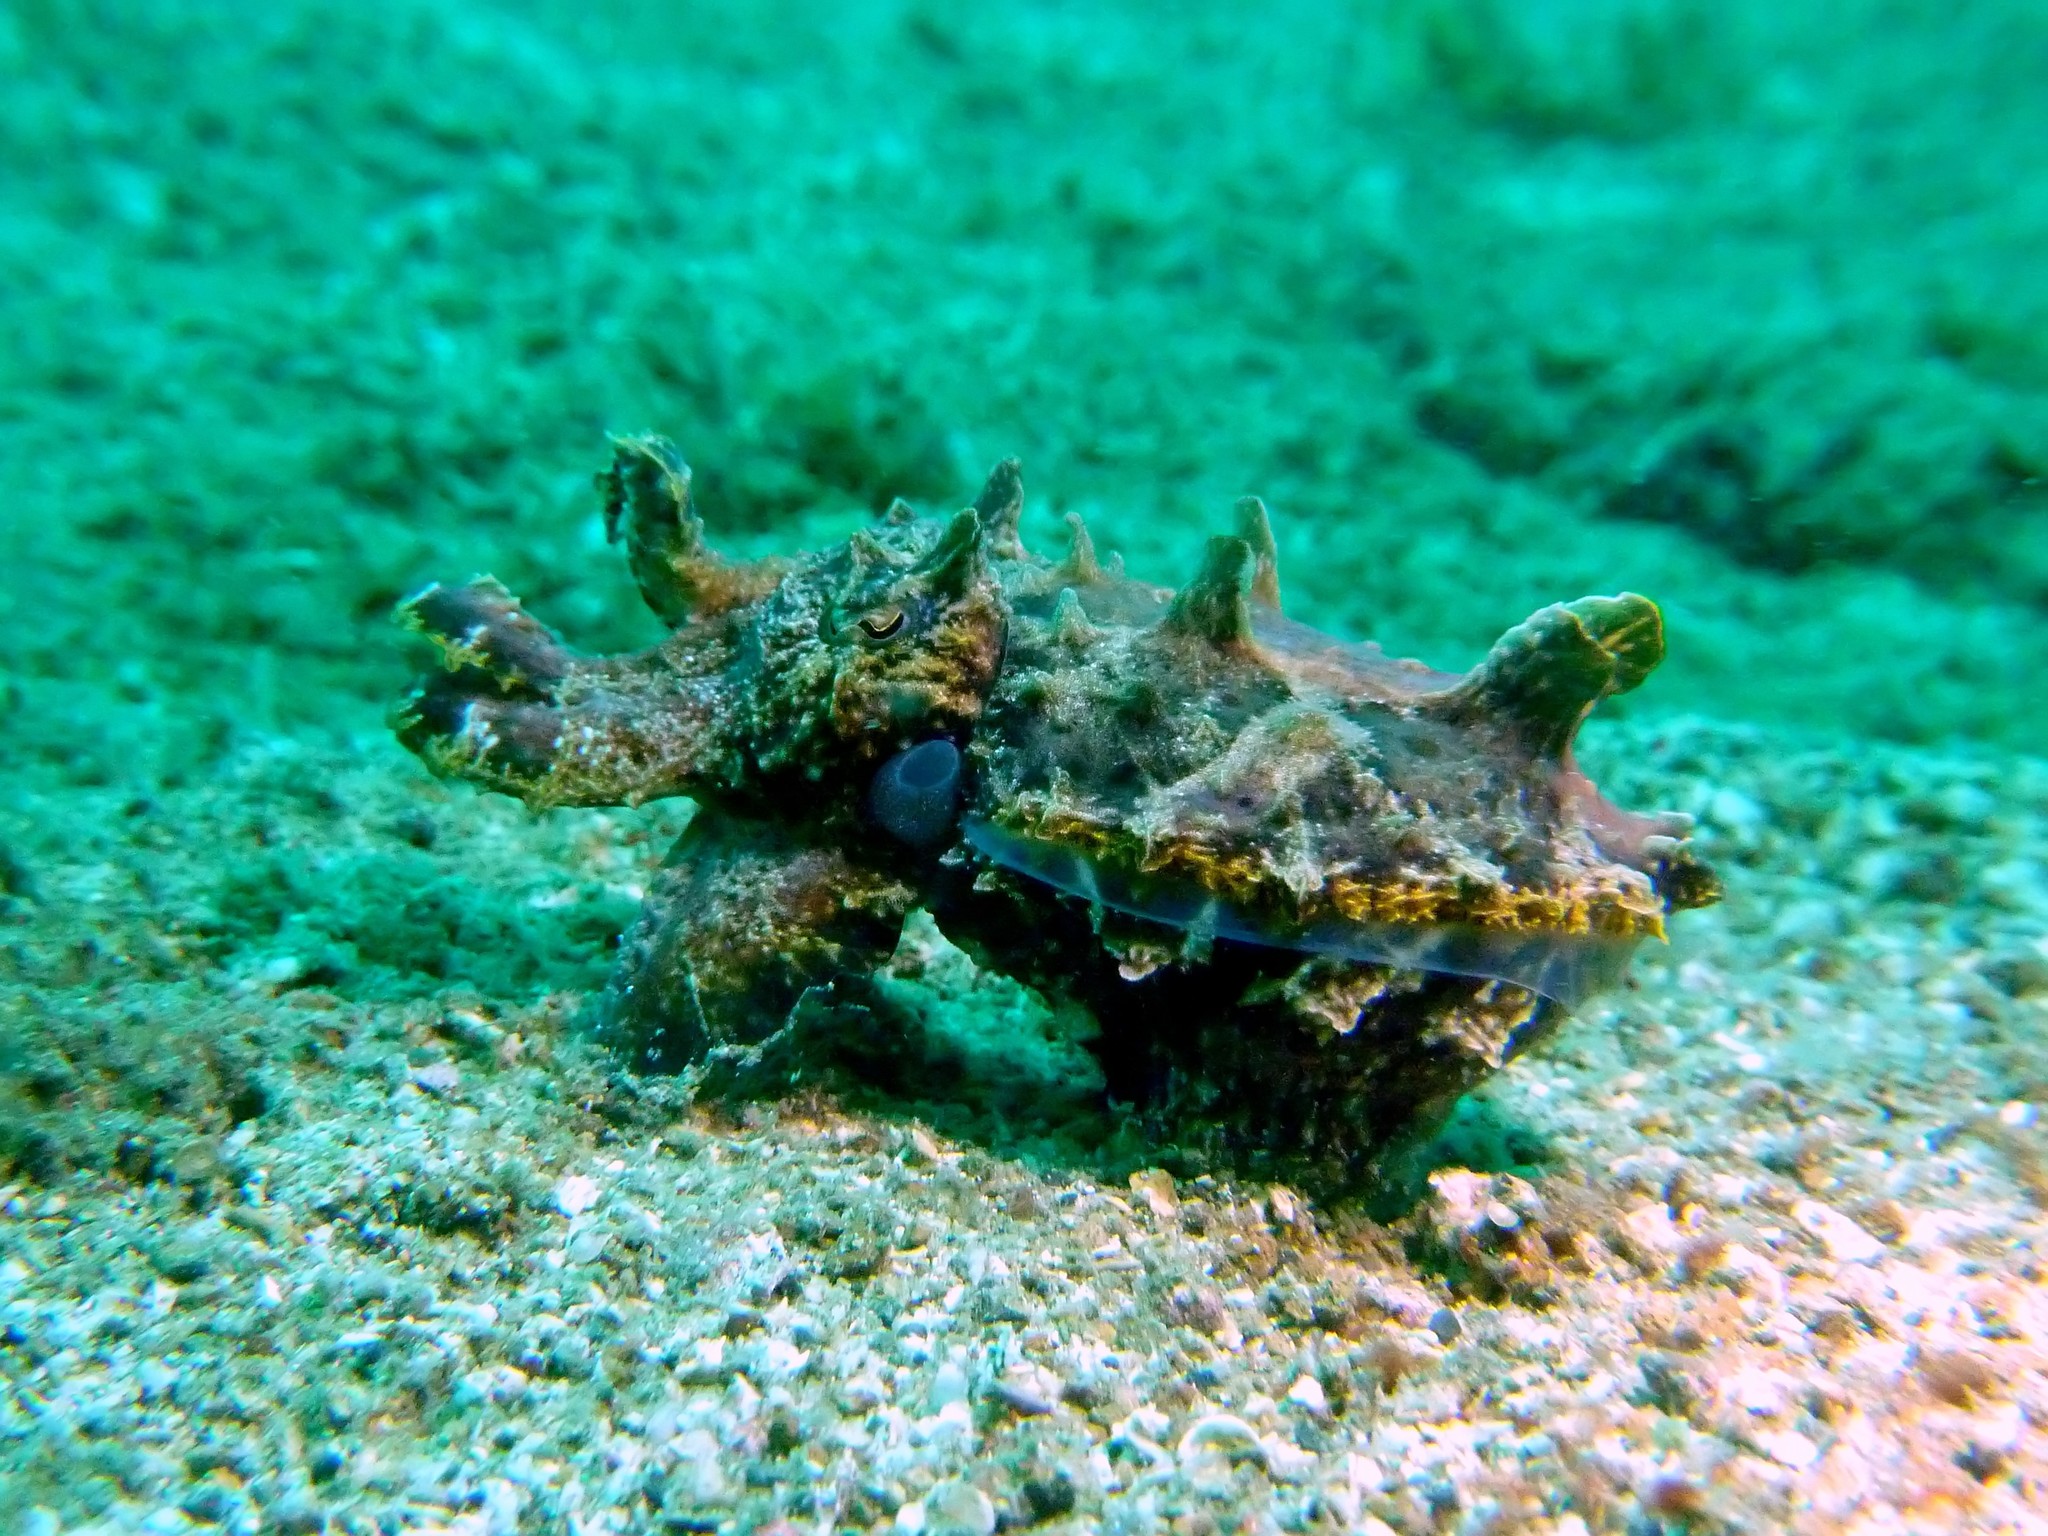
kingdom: Animalia
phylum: Mollusca
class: Cephalopoda
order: Sepiida
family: Sepiidae
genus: Ascarosepion
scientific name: Ascarosepion pfefferi
